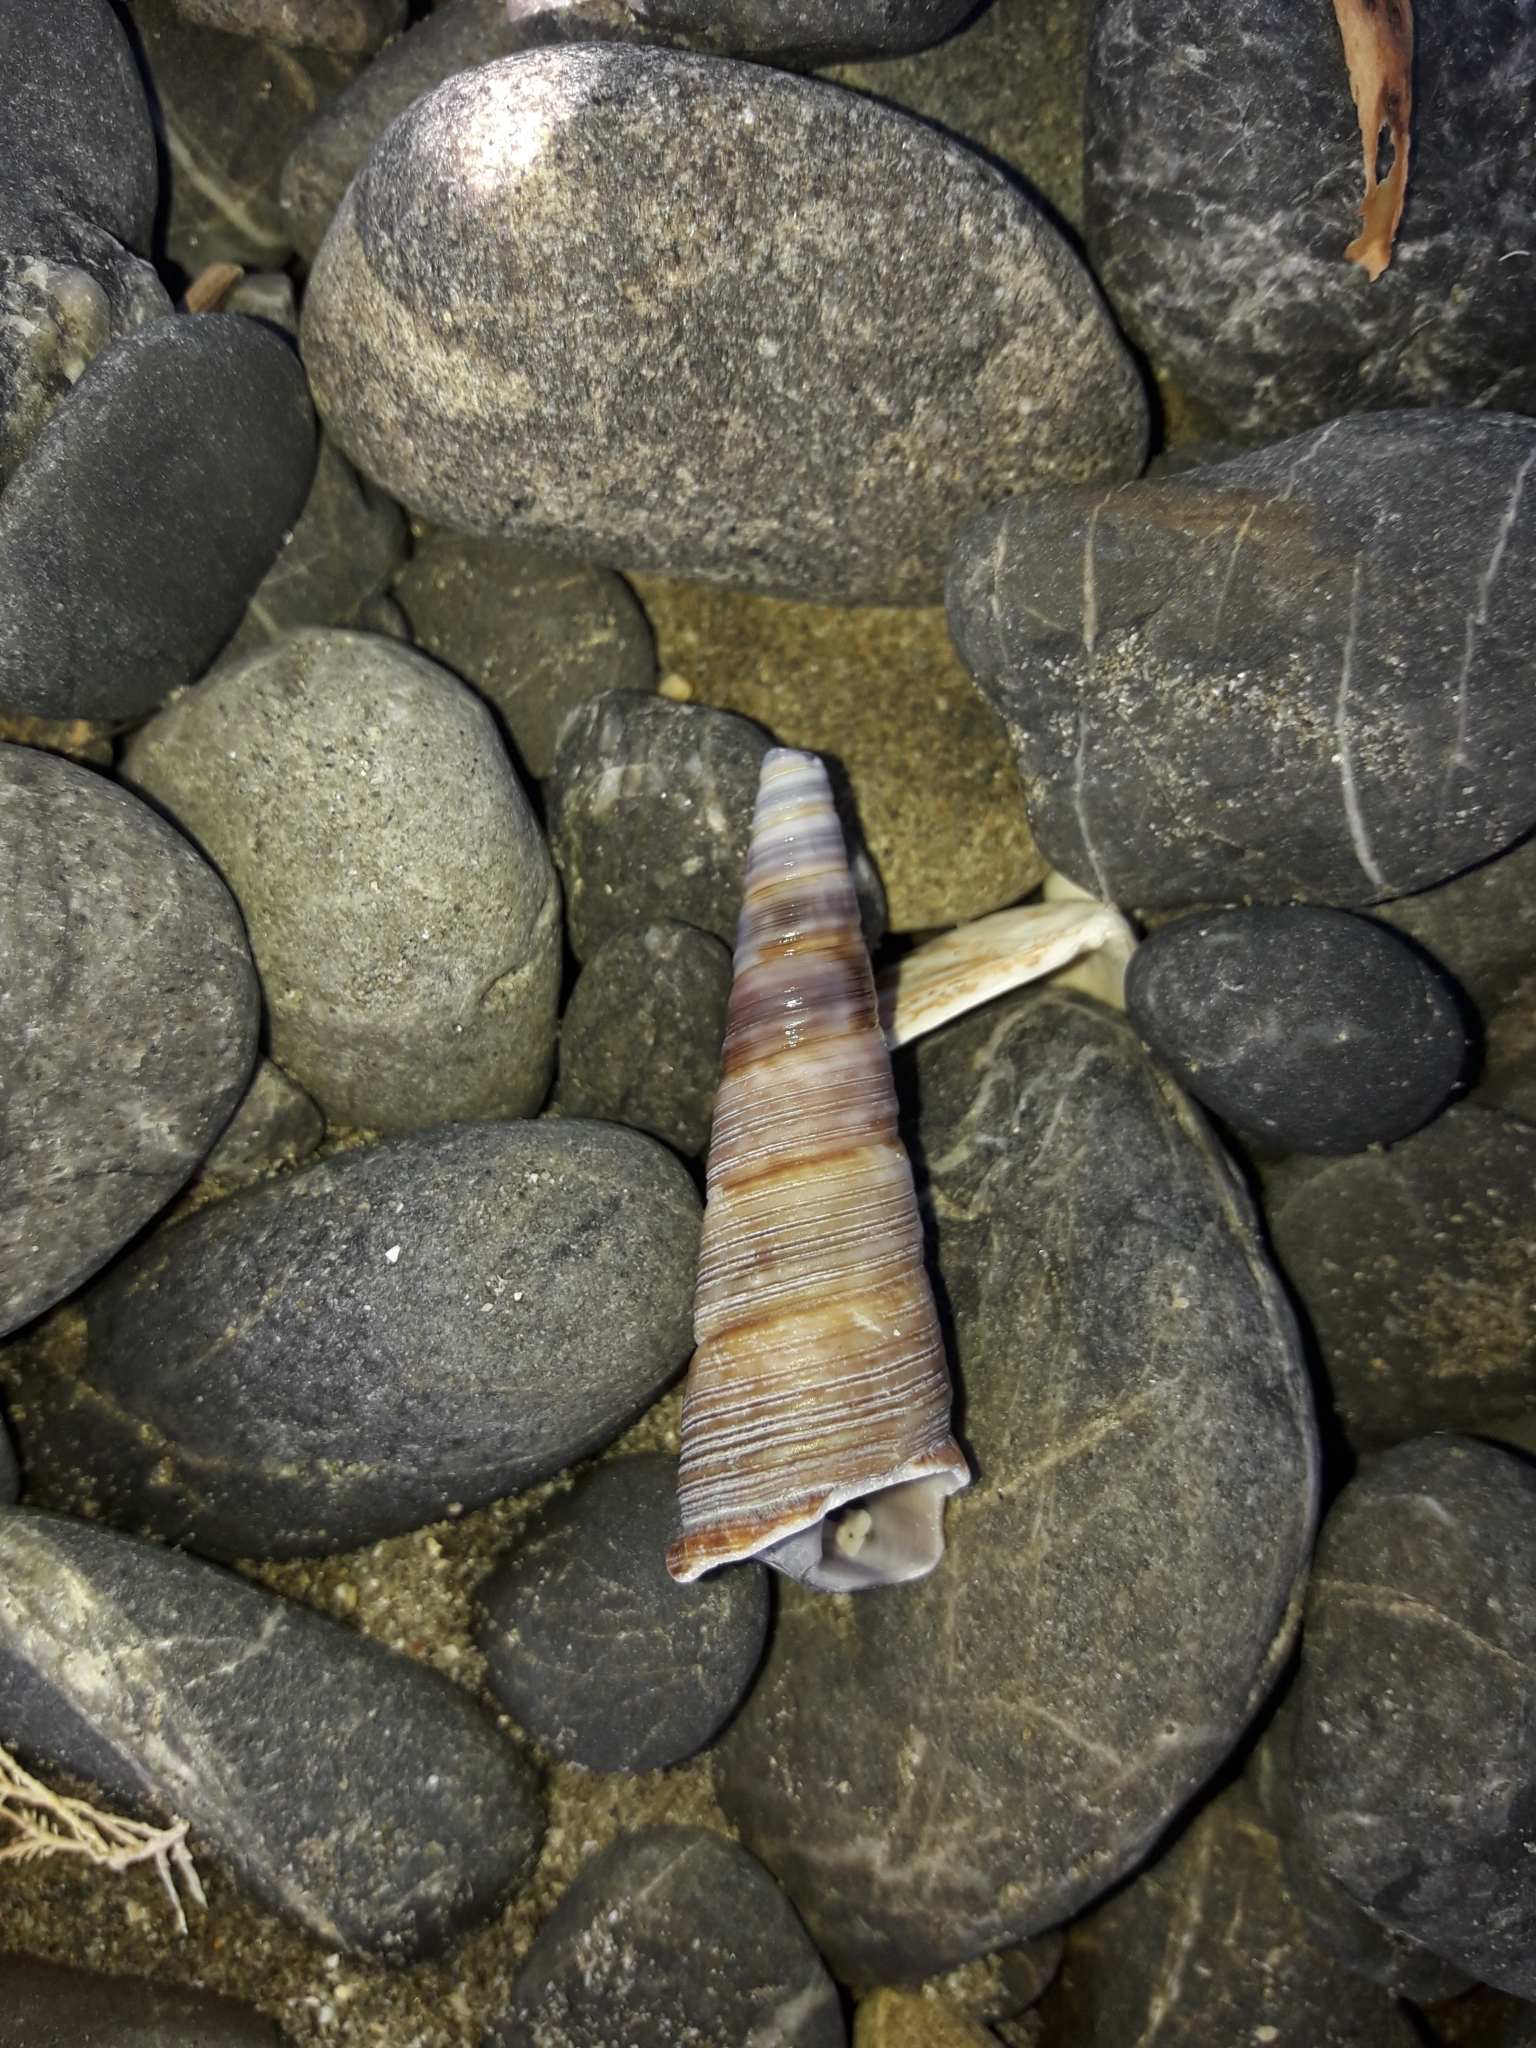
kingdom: Animalia
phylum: Mollusca
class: Gastropoda
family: Turritellidae
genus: Maoricolpus
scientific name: Maoricolpus roseus
